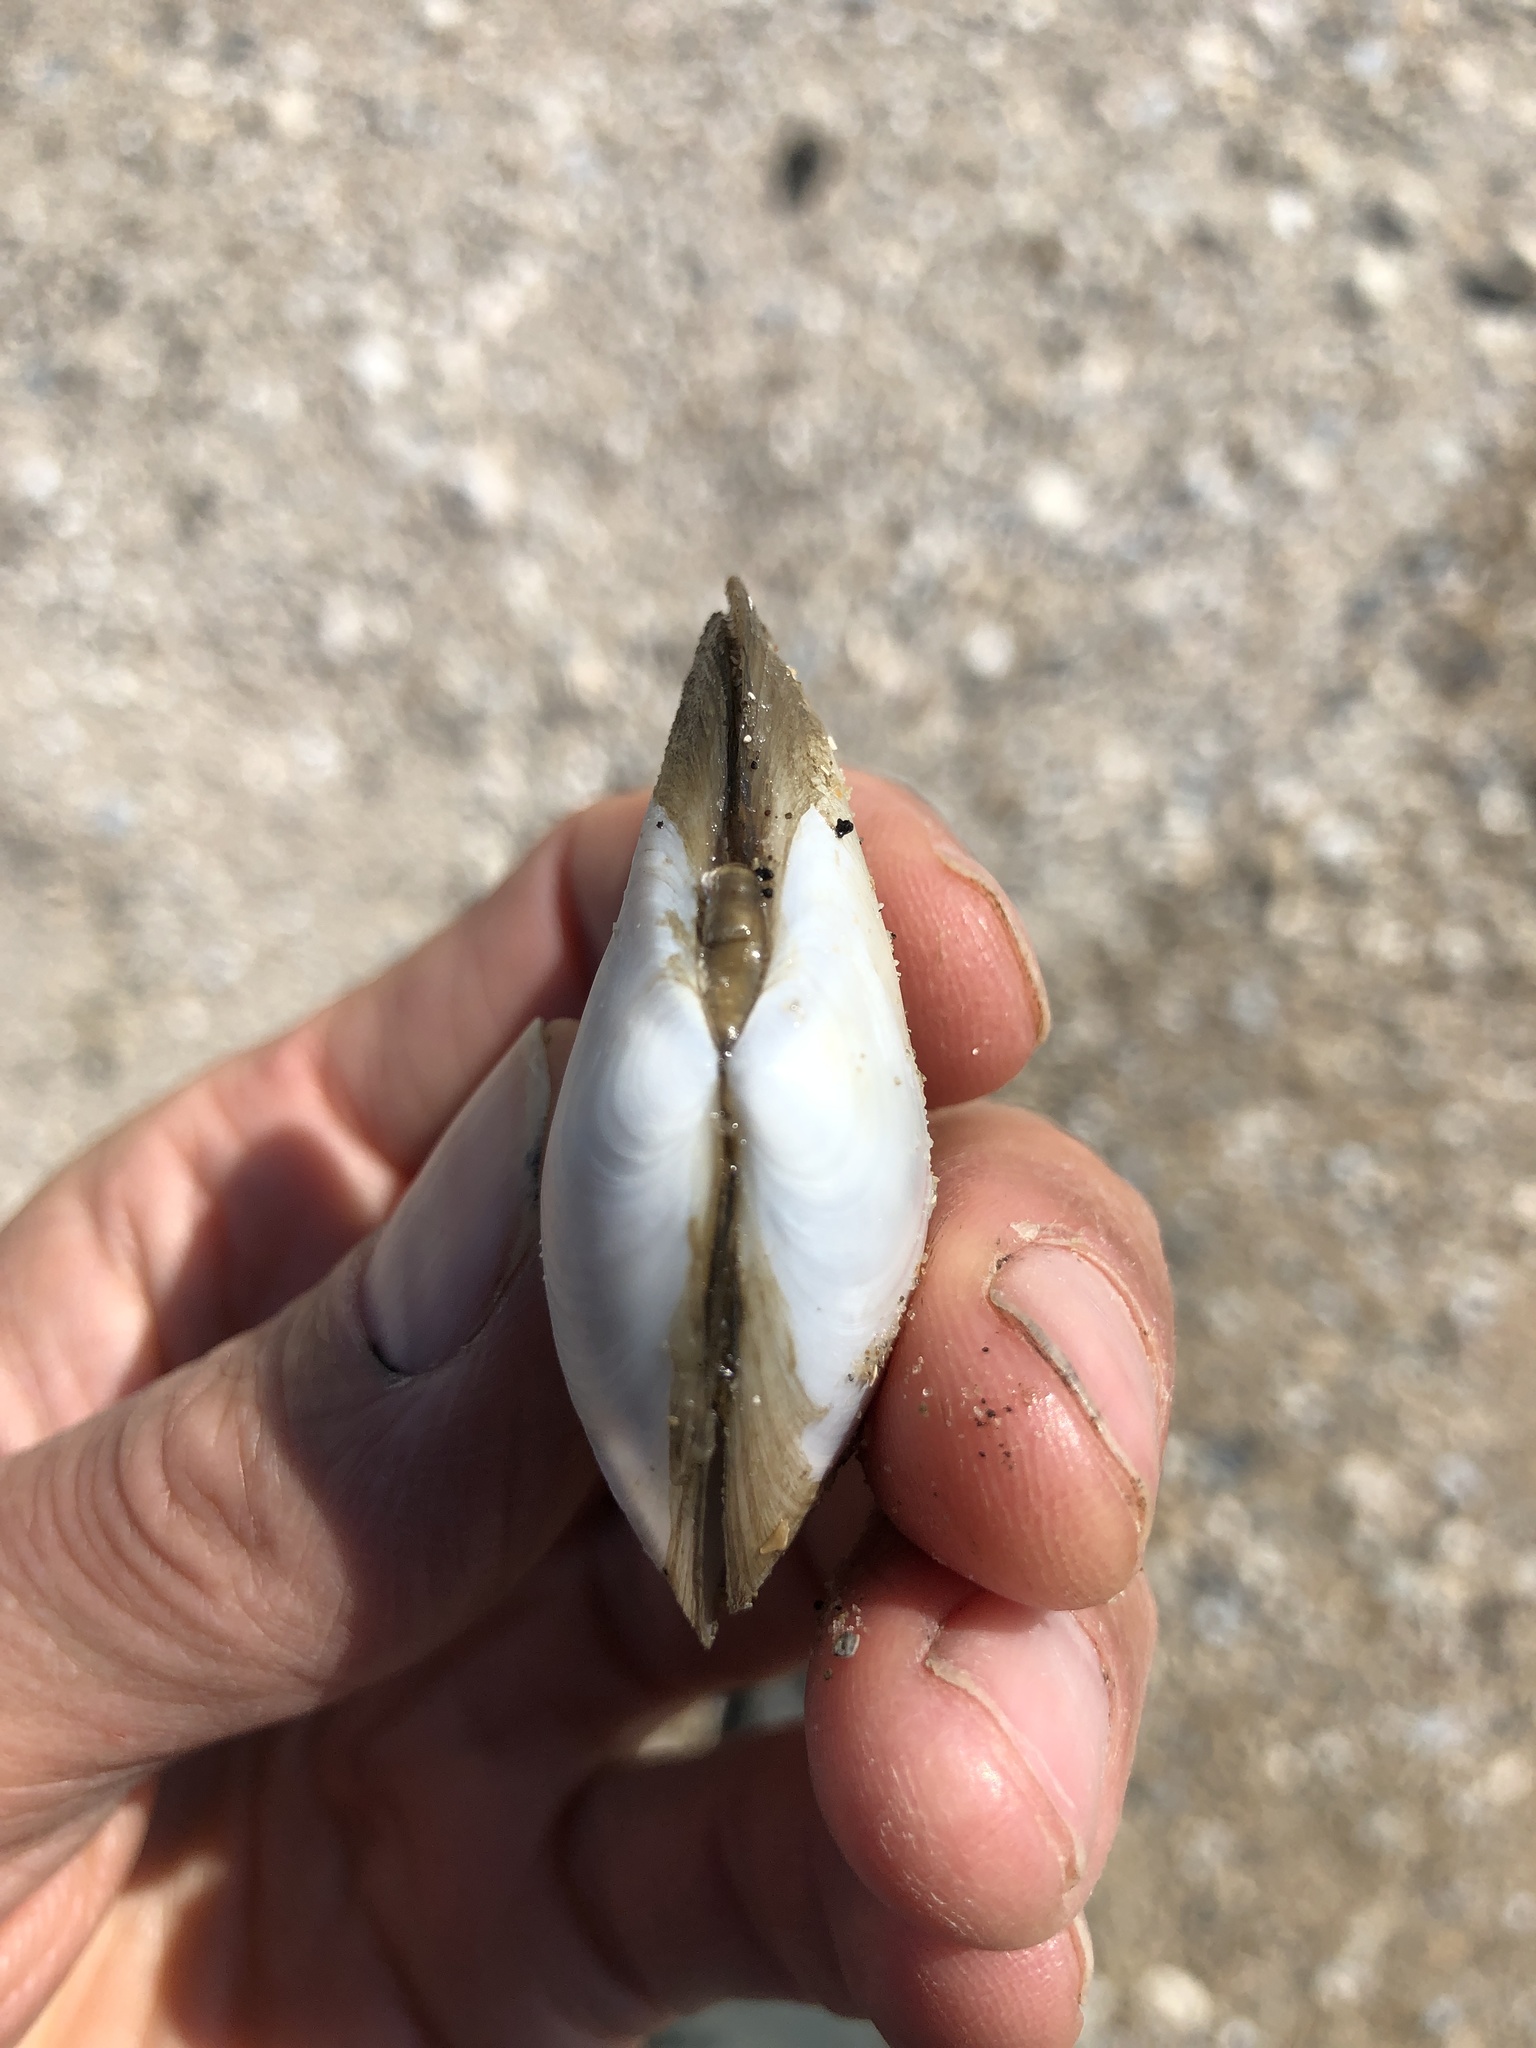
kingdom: Animalia
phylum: Mollusca
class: Bivalvia
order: Cardiida
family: Tellinidae
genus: Austromacoma
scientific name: Austromacoma constricta
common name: Constricted macoma
